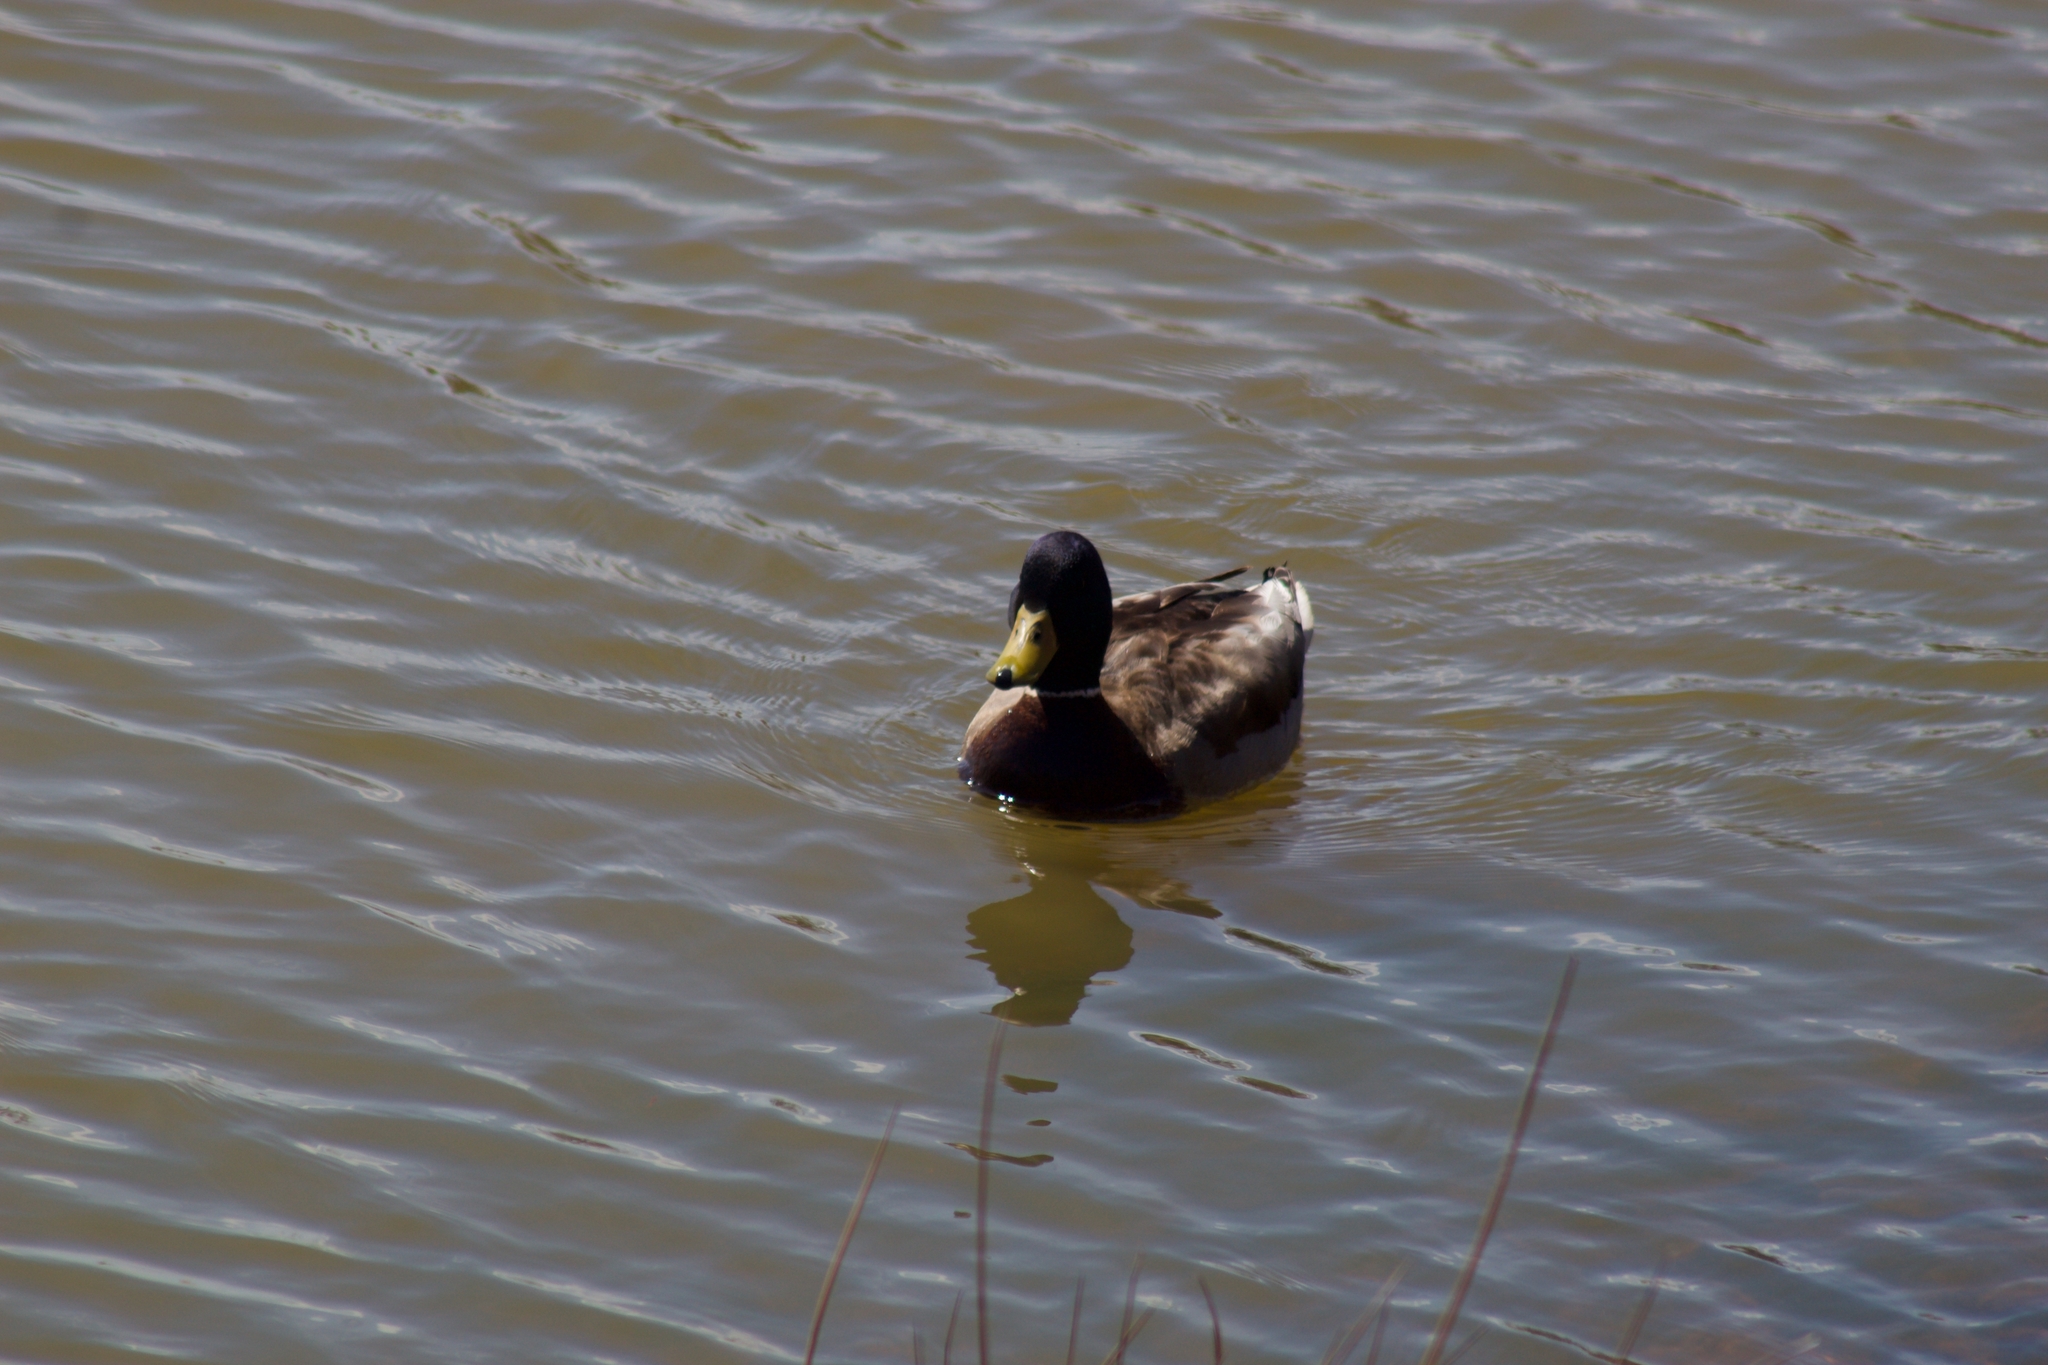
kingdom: Animalia
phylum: Chordata
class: Aves
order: Anseriformes
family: Anatidae
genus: Anas
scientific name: Anas platyrhynchos
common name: Mallard
